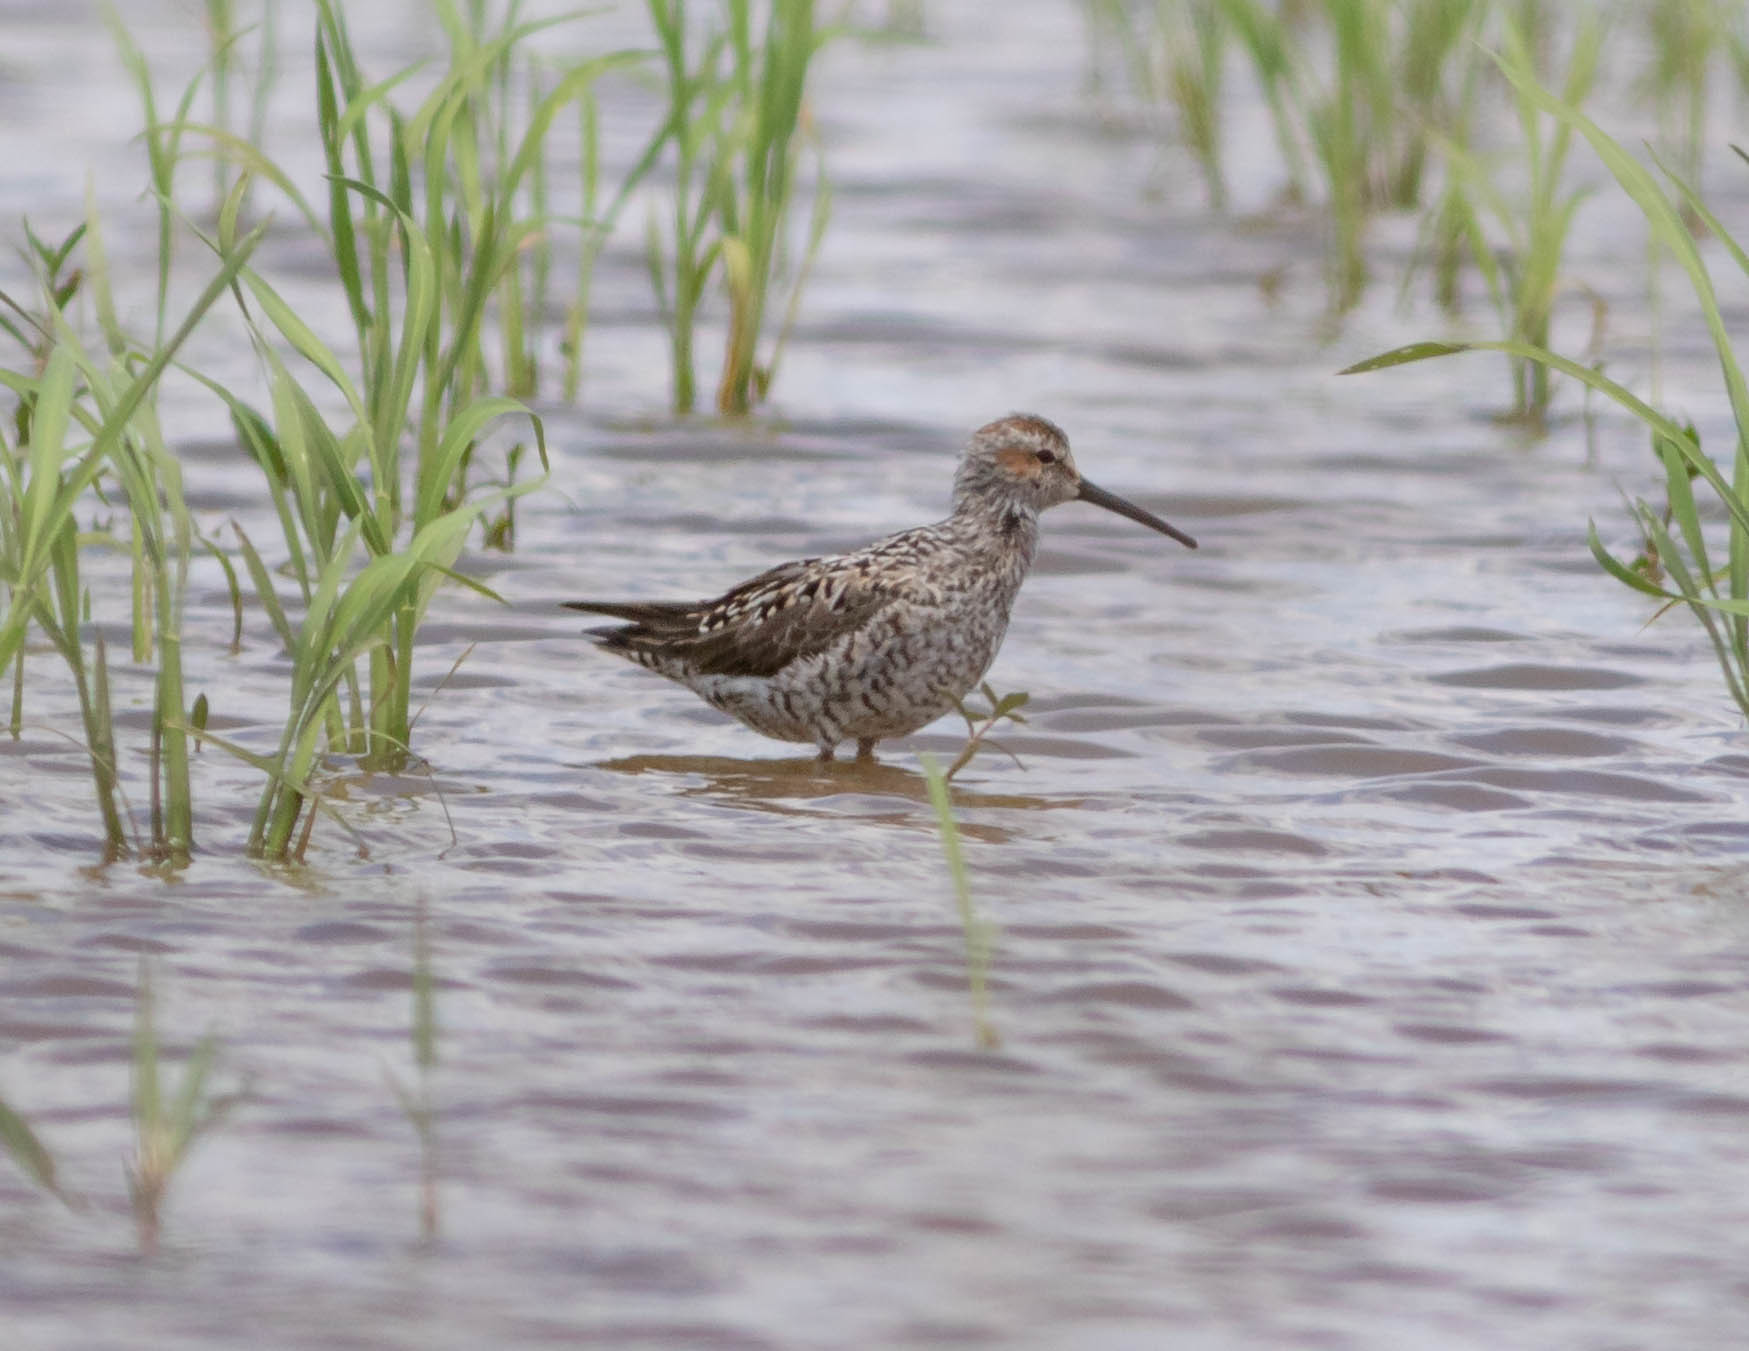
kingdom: Animalia
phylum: Chordata
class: Aves
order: Charadriiformes
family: Scolopacidae
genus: Calidris
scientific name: Calidris himantopus
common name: Stilt sandpiper
